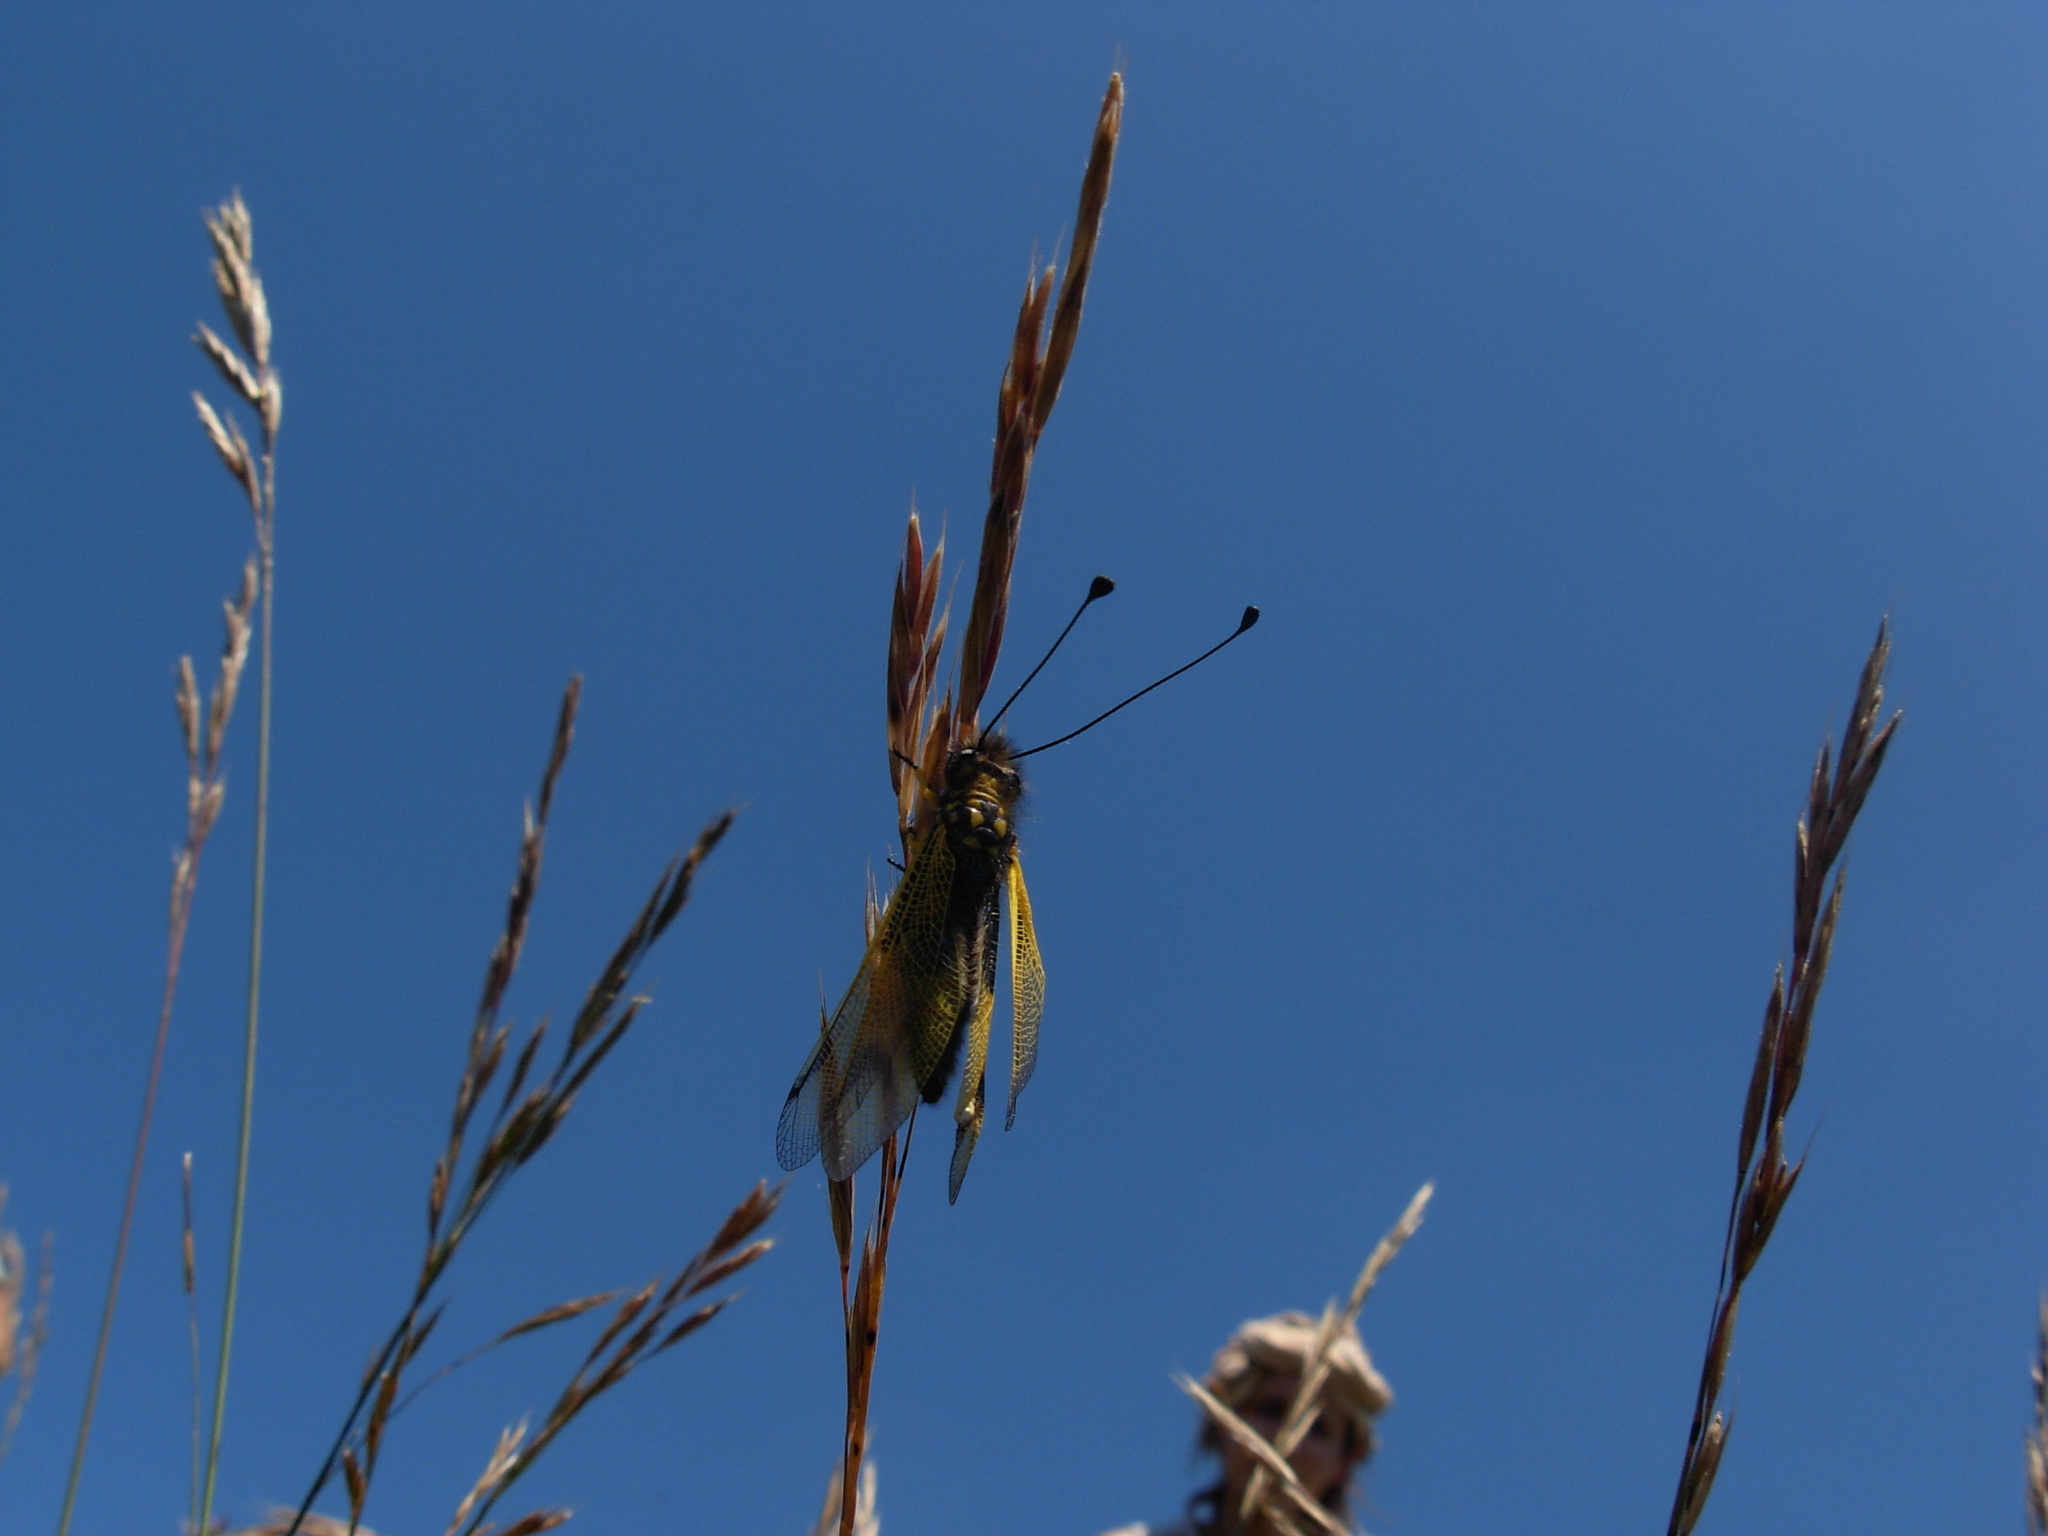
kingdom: Animalia
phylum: Arthropoda
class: Insecta
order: Neuroptera
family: Ascalaphidae
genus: Libelloides
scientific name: Libelloides longicornis
